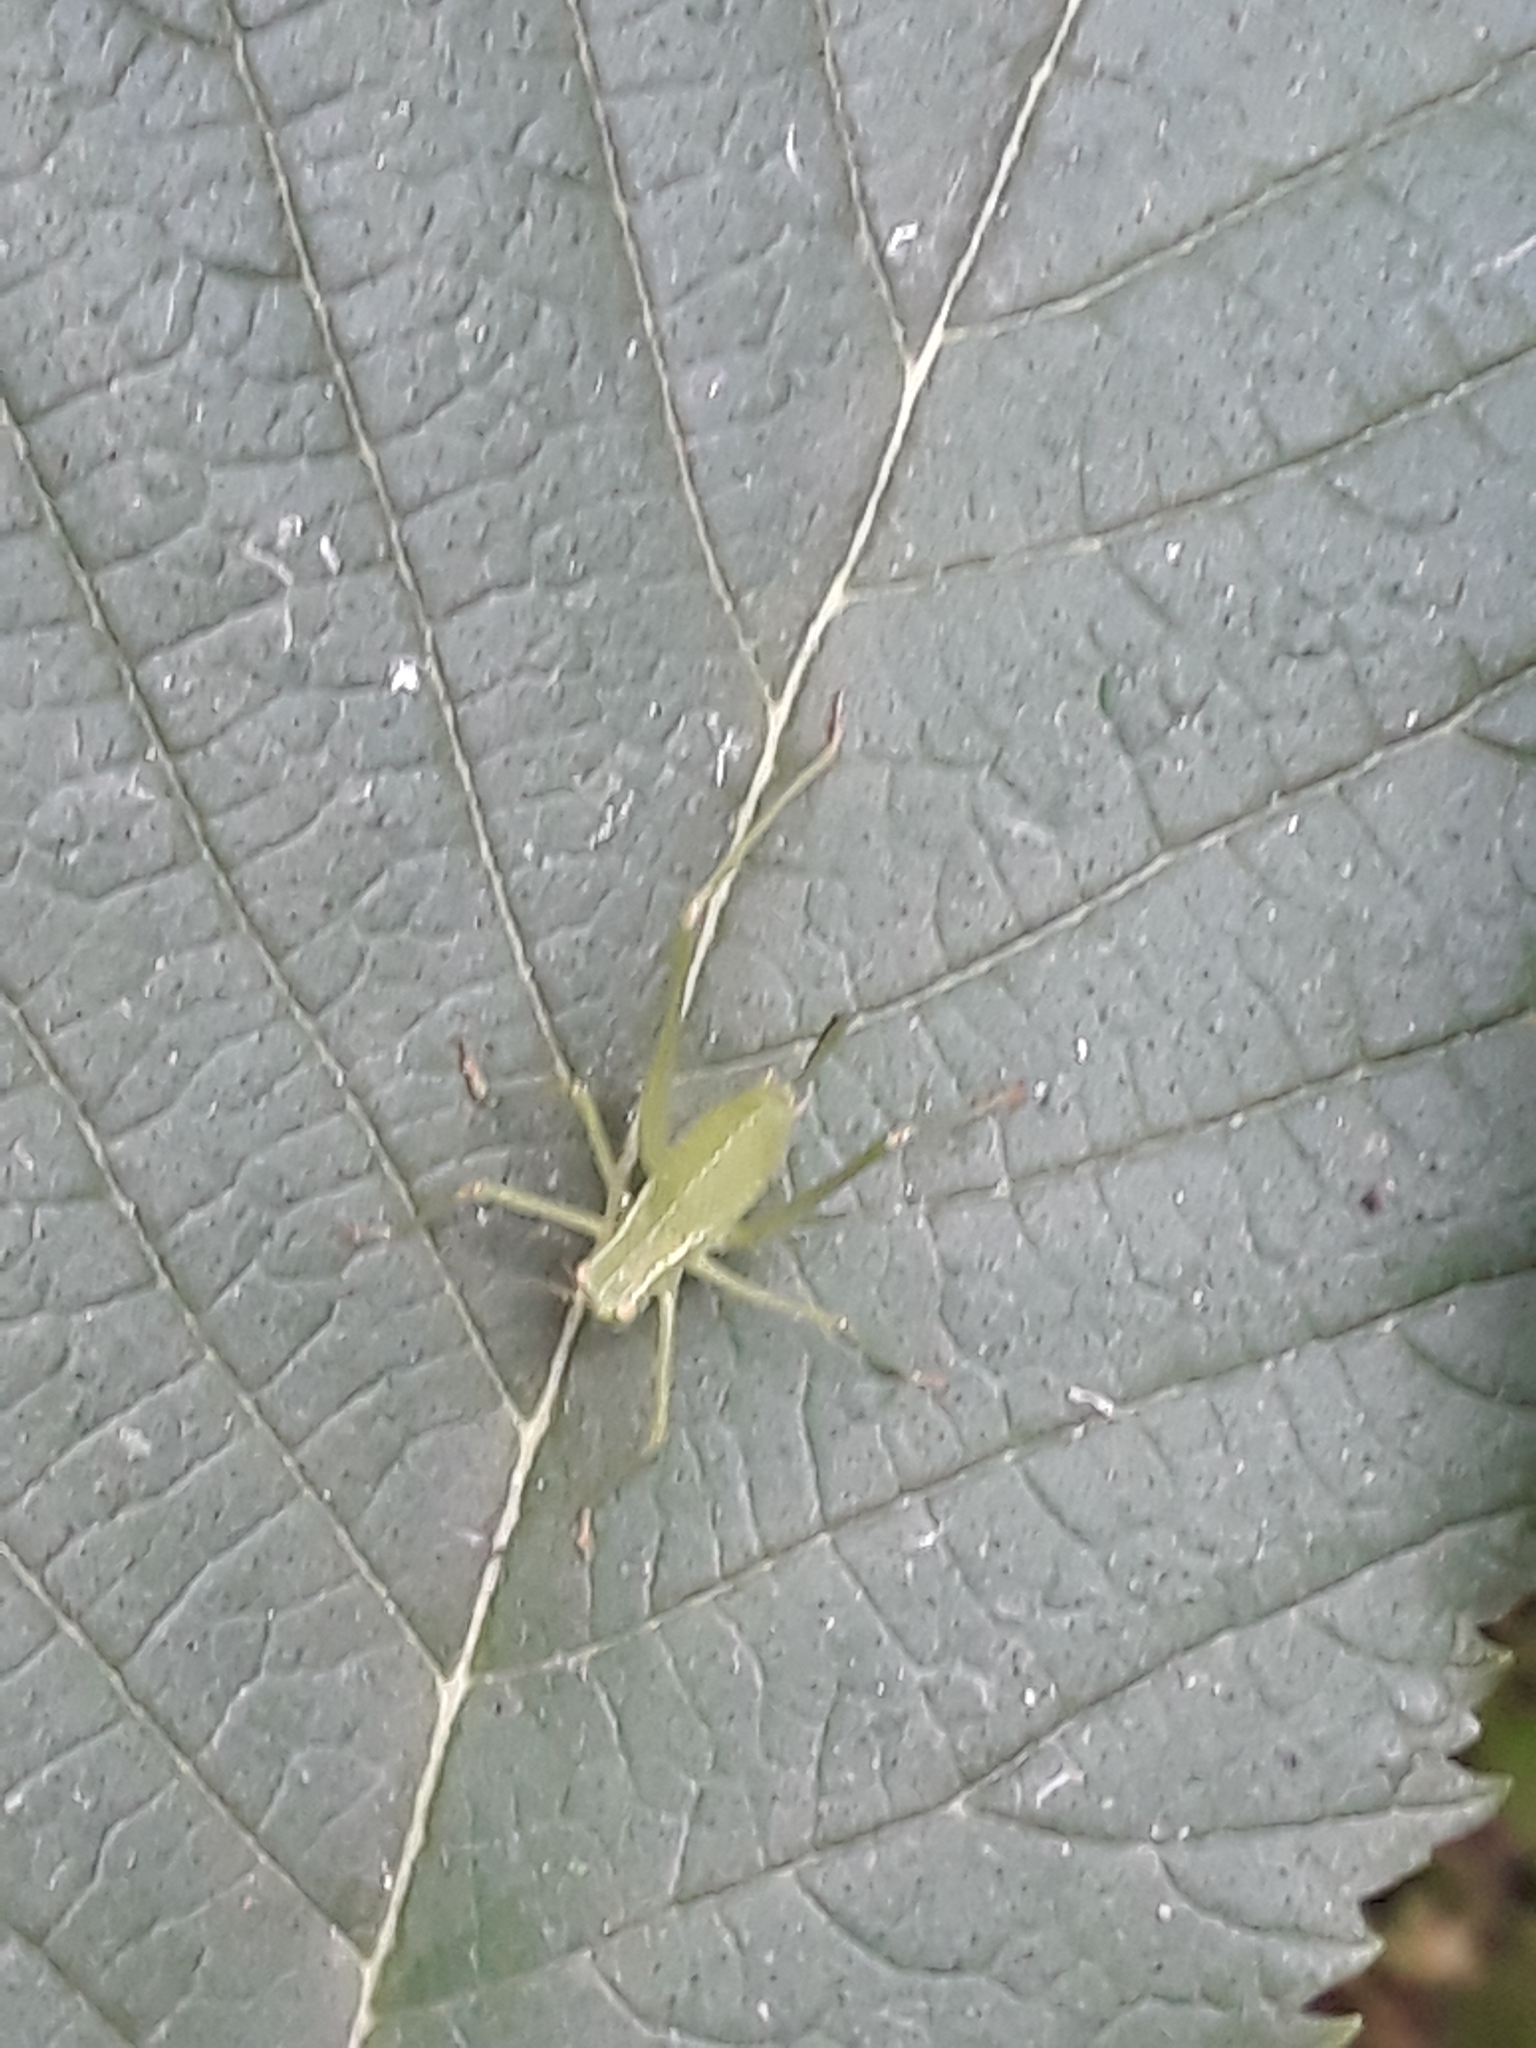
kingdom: Animalia
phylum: Arthropoda
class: Insecta
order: Orthoptera
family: Tettigoniidae
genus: Leptophyes
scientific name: Leptophyes punctatissima
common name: Speckled bush-cricket
